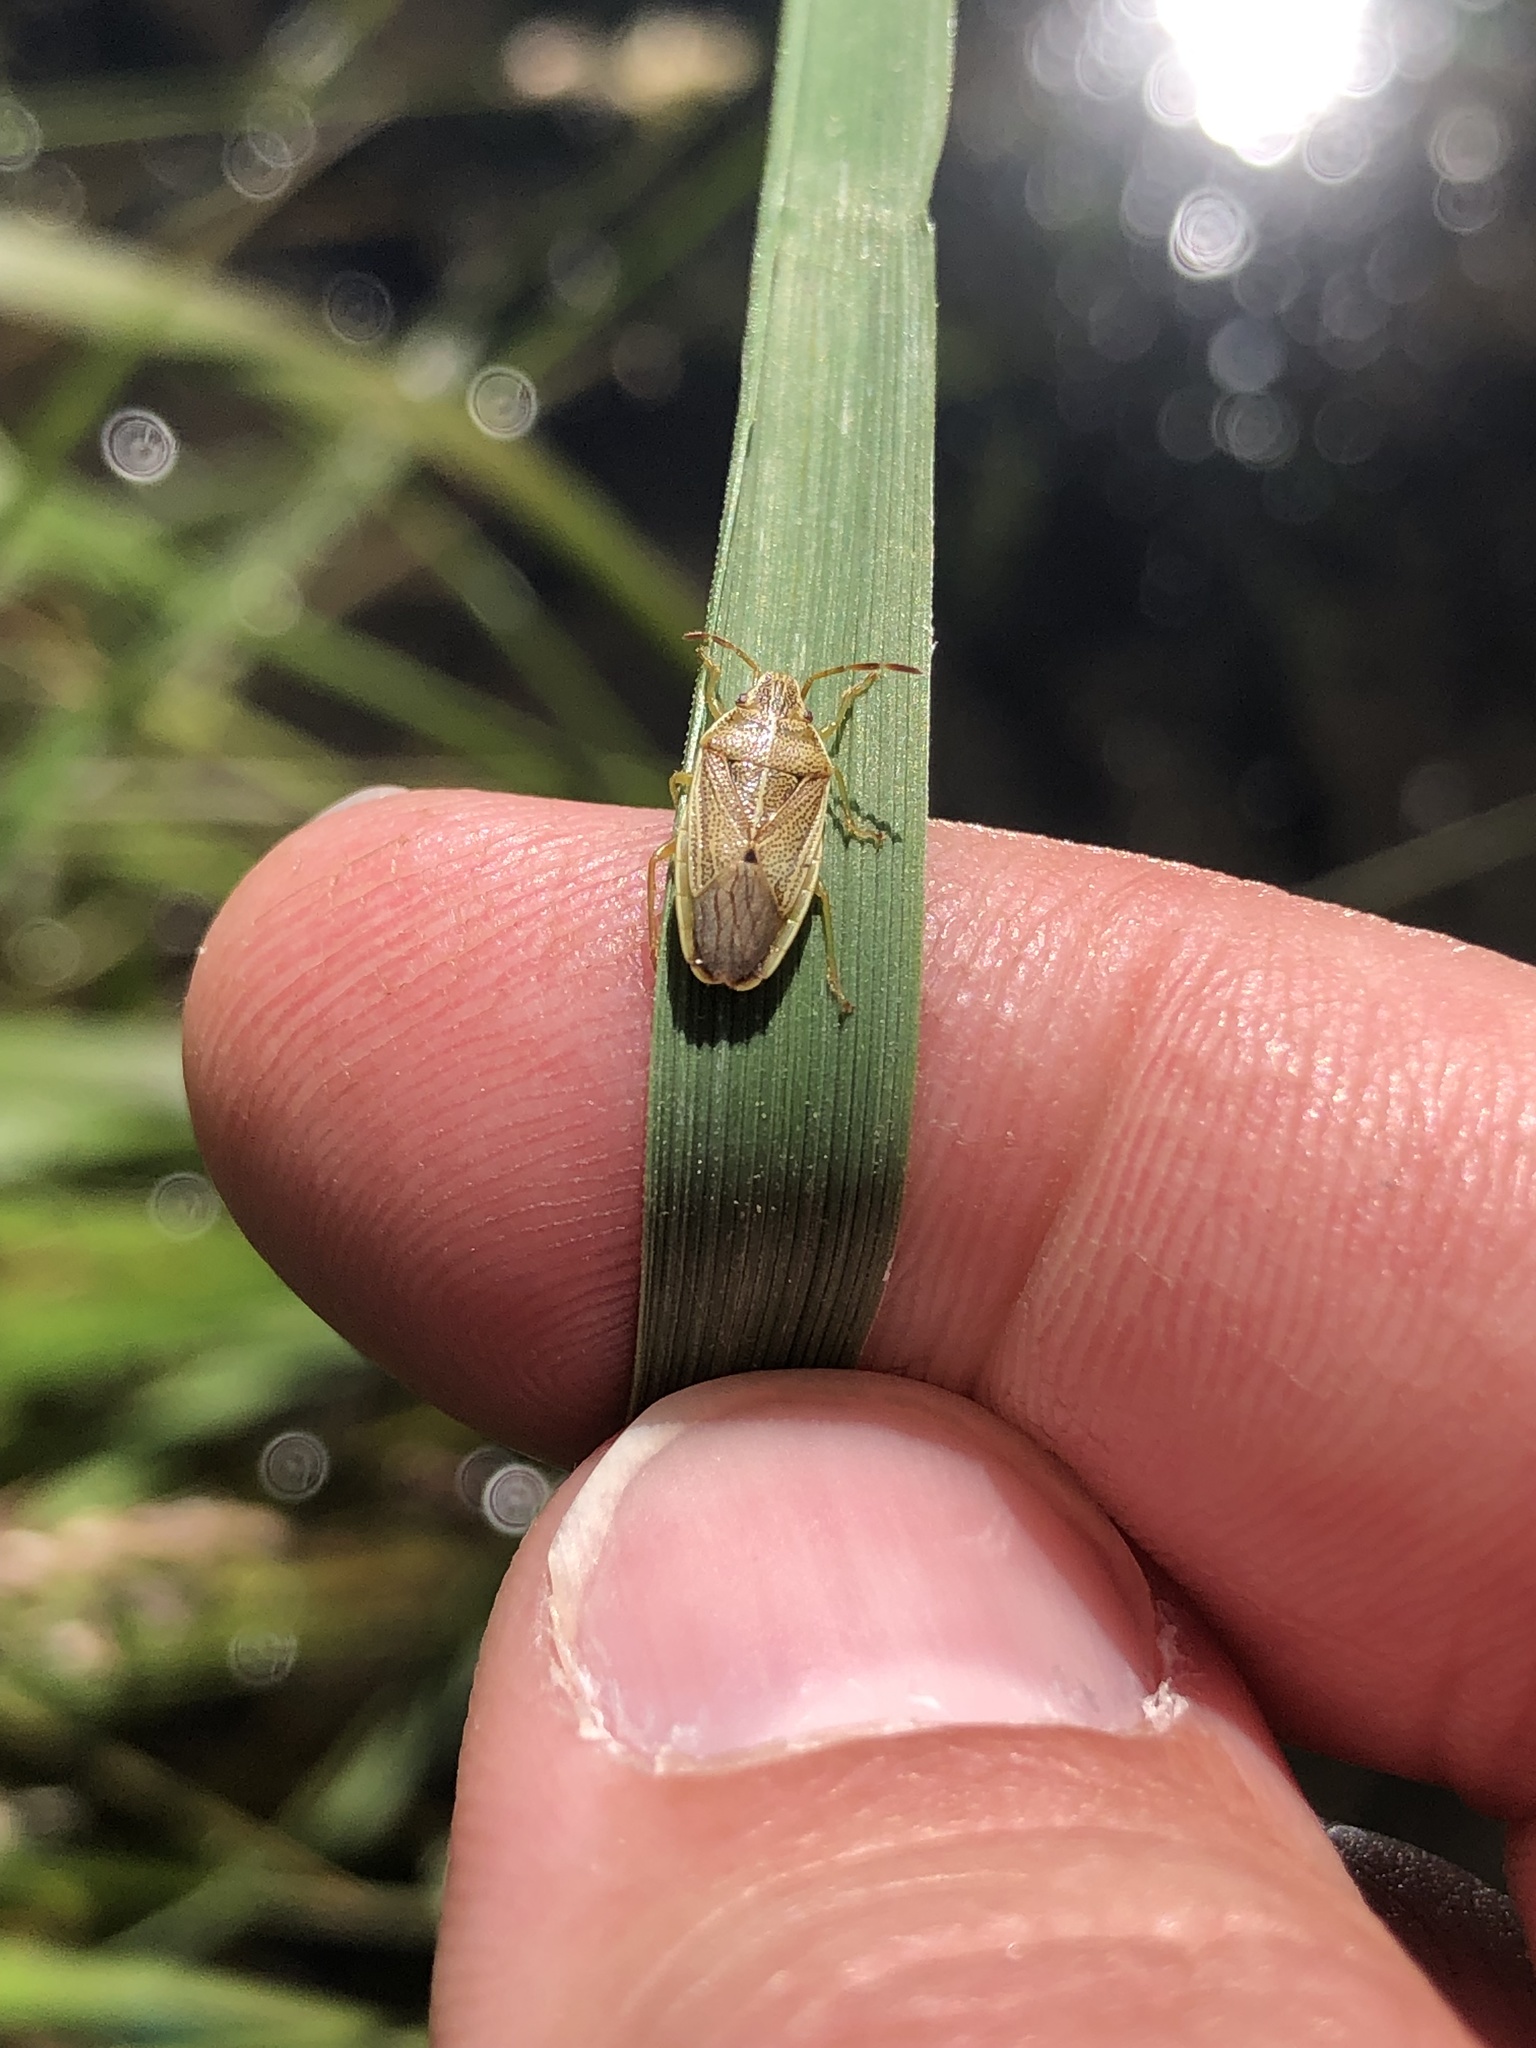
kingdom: Animalia
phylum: Arthropoda
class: Insecta
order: Hemiptera
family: Acanthosomatidae
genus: Rhopalimorpha
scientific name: Rhopalimorpha obscura
